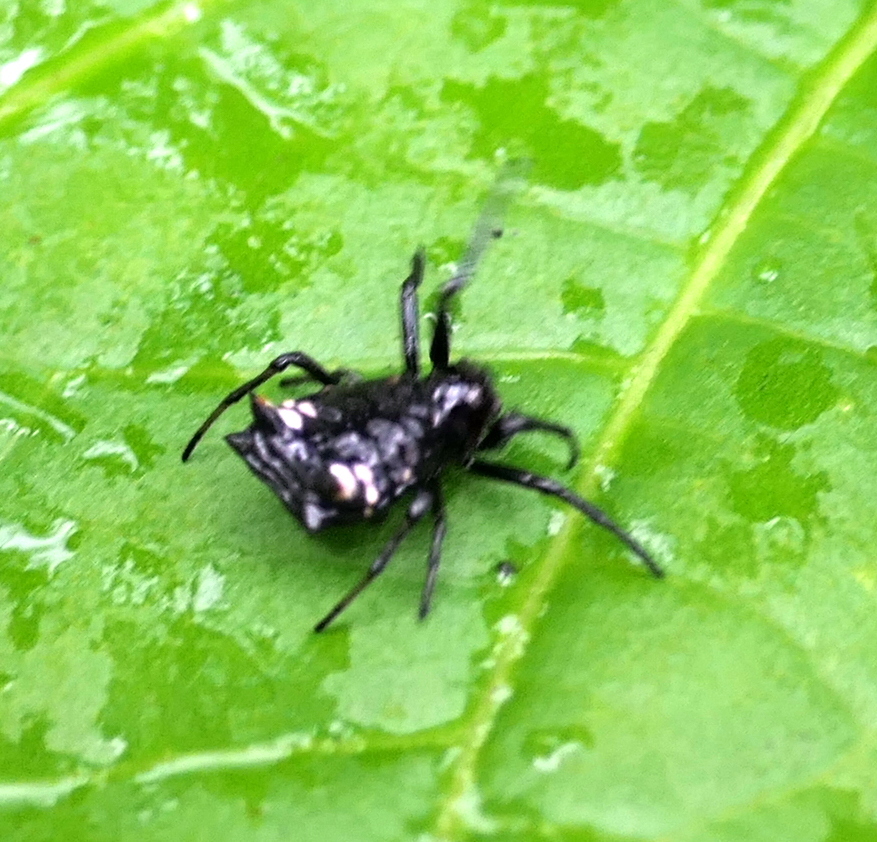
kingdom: Animalia
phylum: Arthropoda
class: Arachnida
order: Araneae
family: Araneidae
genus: Micrathena
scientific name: Micrathena patruelis
